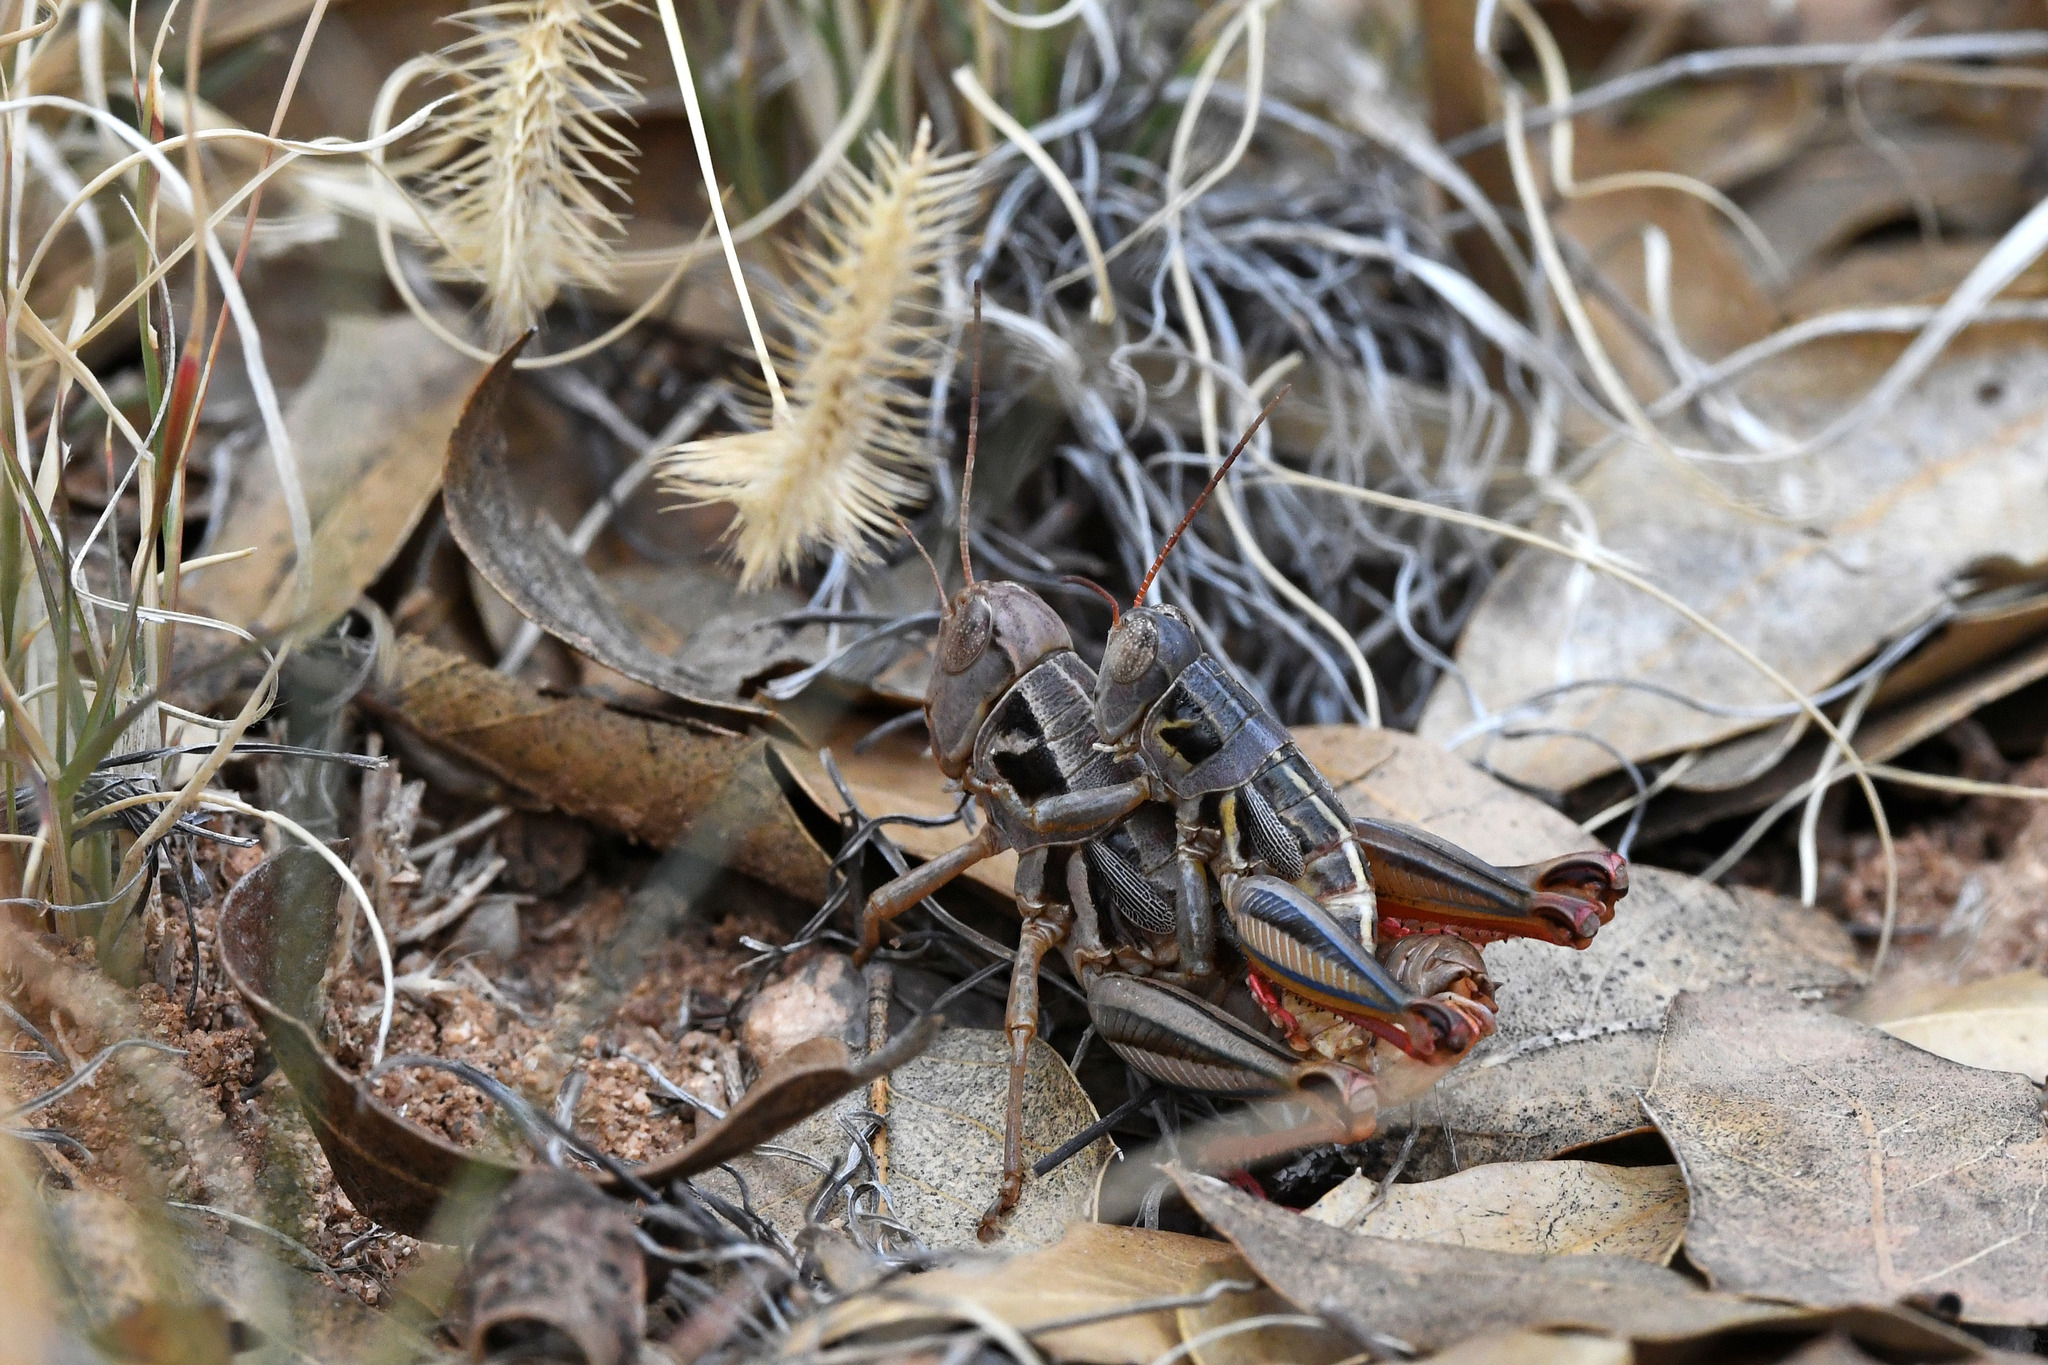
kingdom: Animalia
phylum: Arthropoda
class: Insecta
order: Orthoptera
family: Acrididae
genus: Barytettix
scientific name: Barytettix humphreysii
